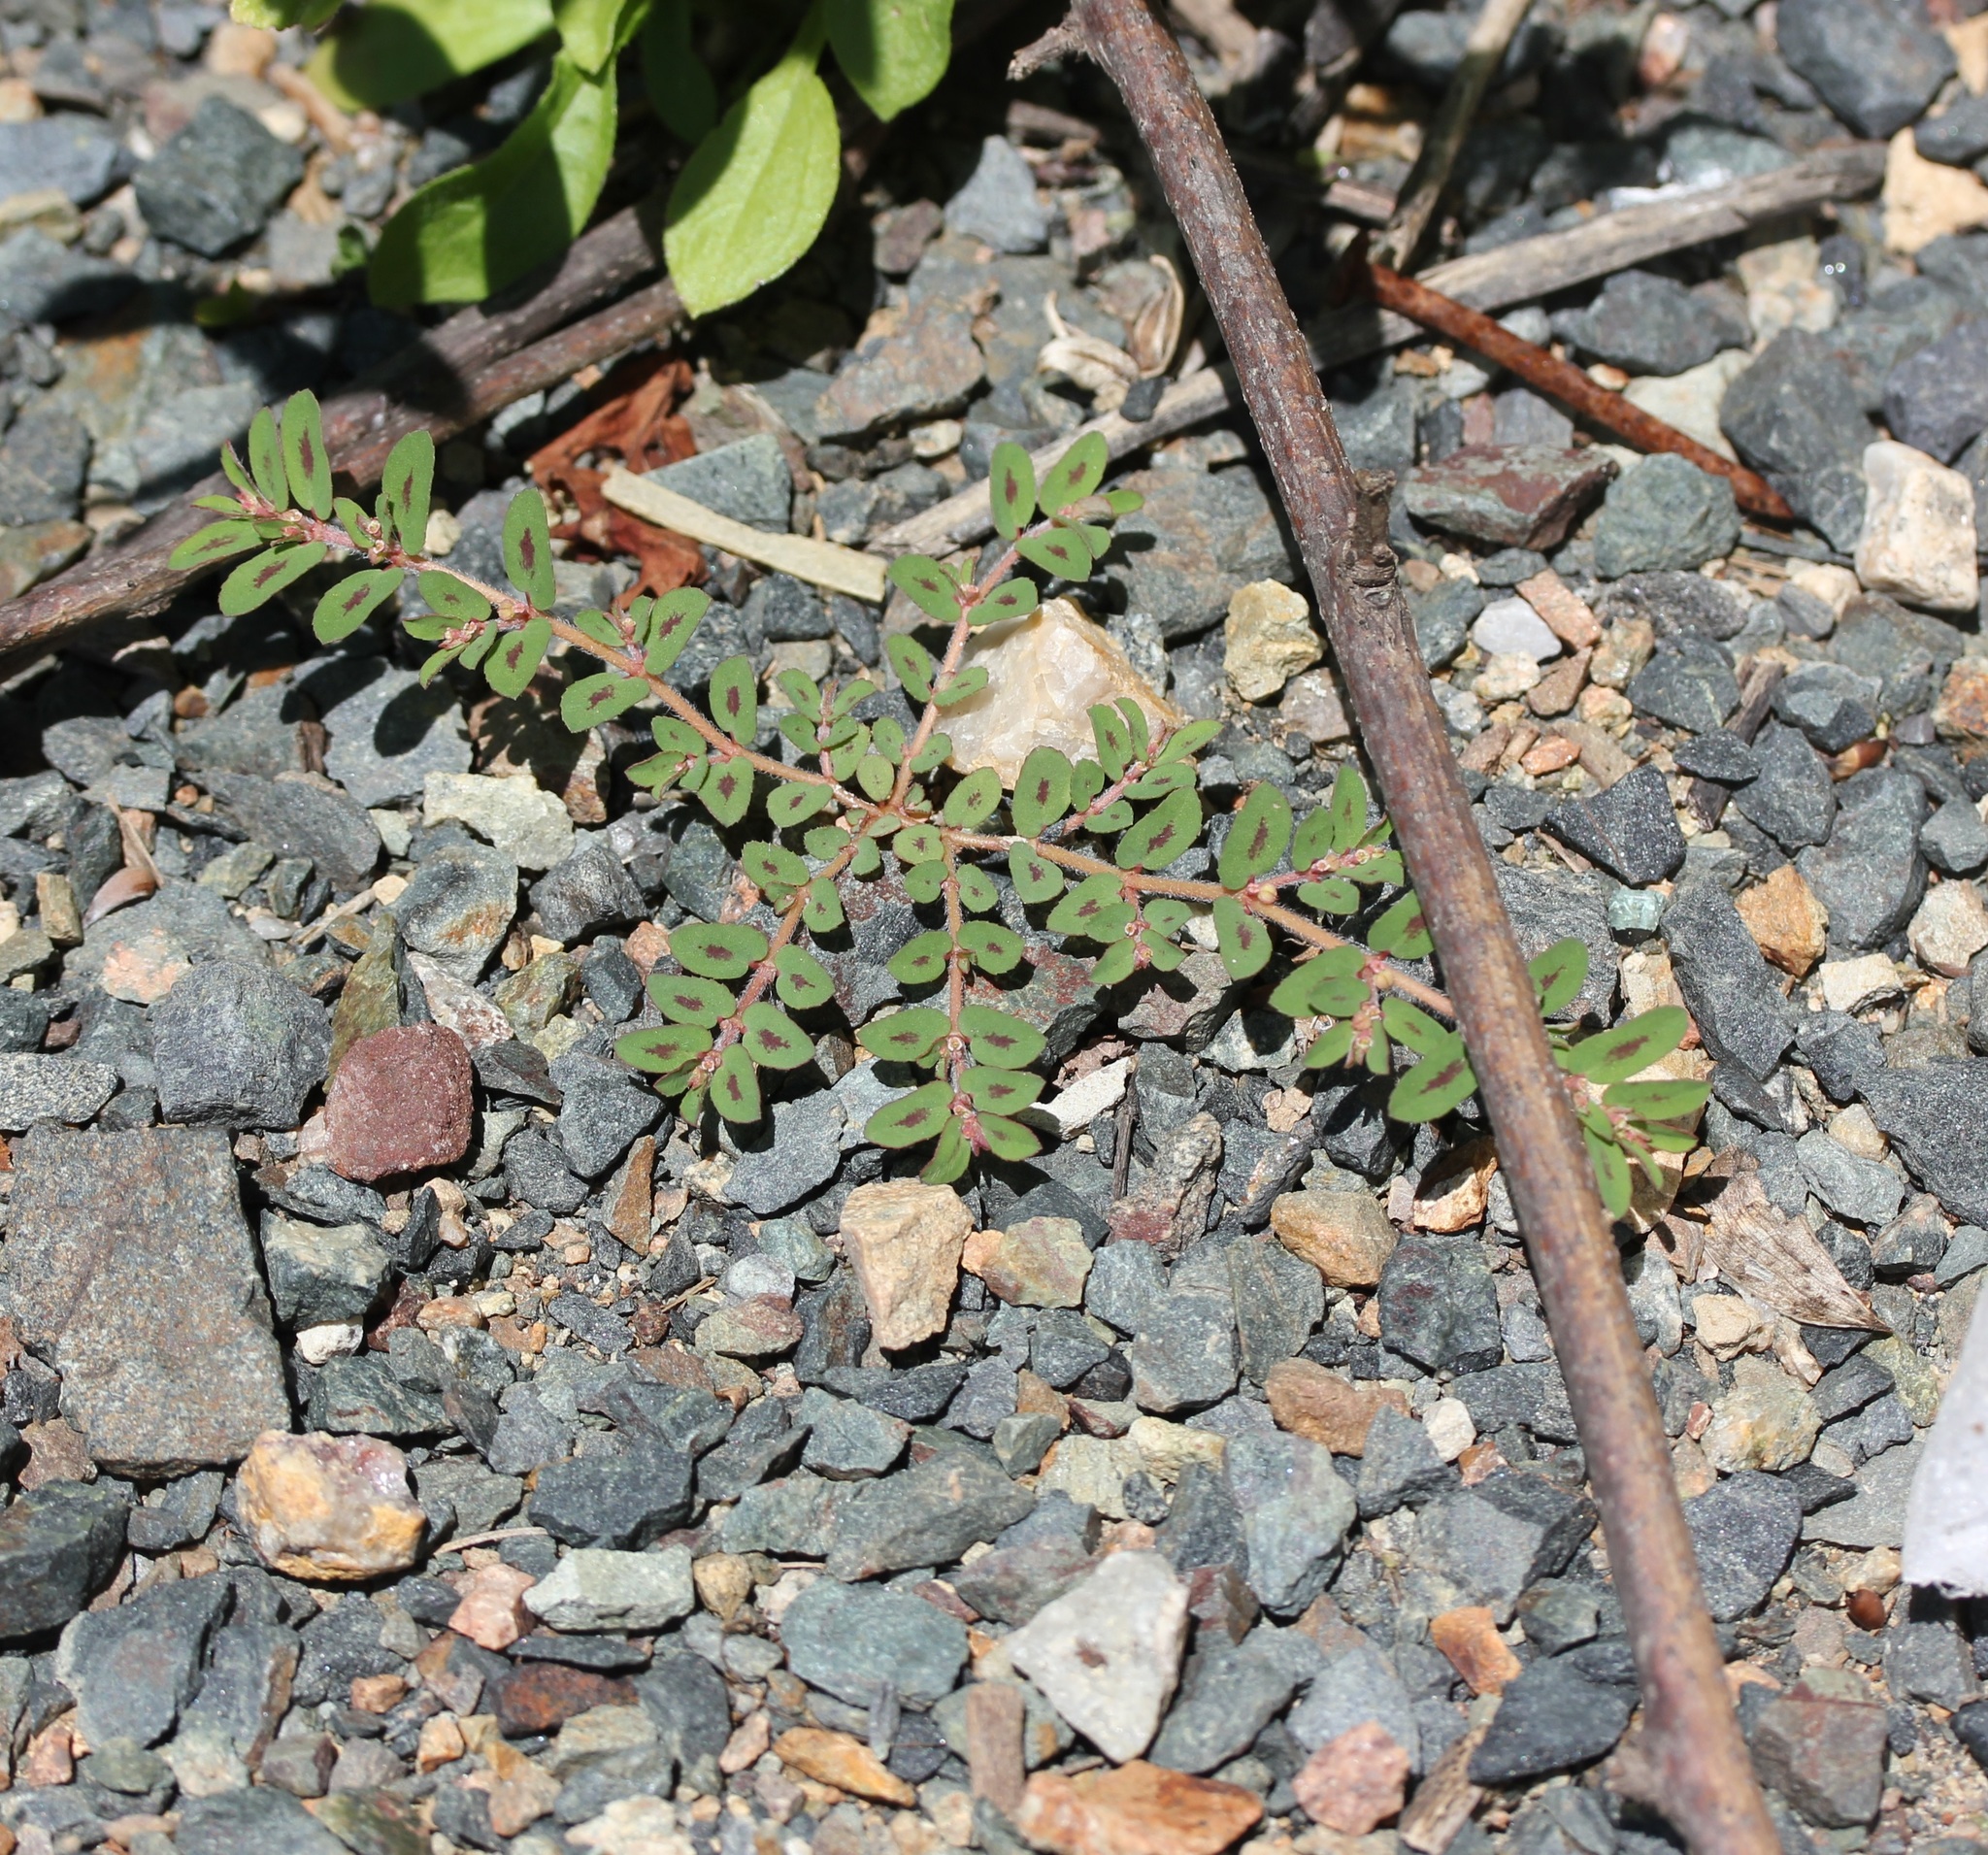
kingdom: Plantae
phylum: Tracheophyta
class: Magnoliopsida
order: Malpighiales
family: Euphorbiaceae
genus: Euphorbia
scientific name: Euphorbia maculata
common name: Spotted spurge
